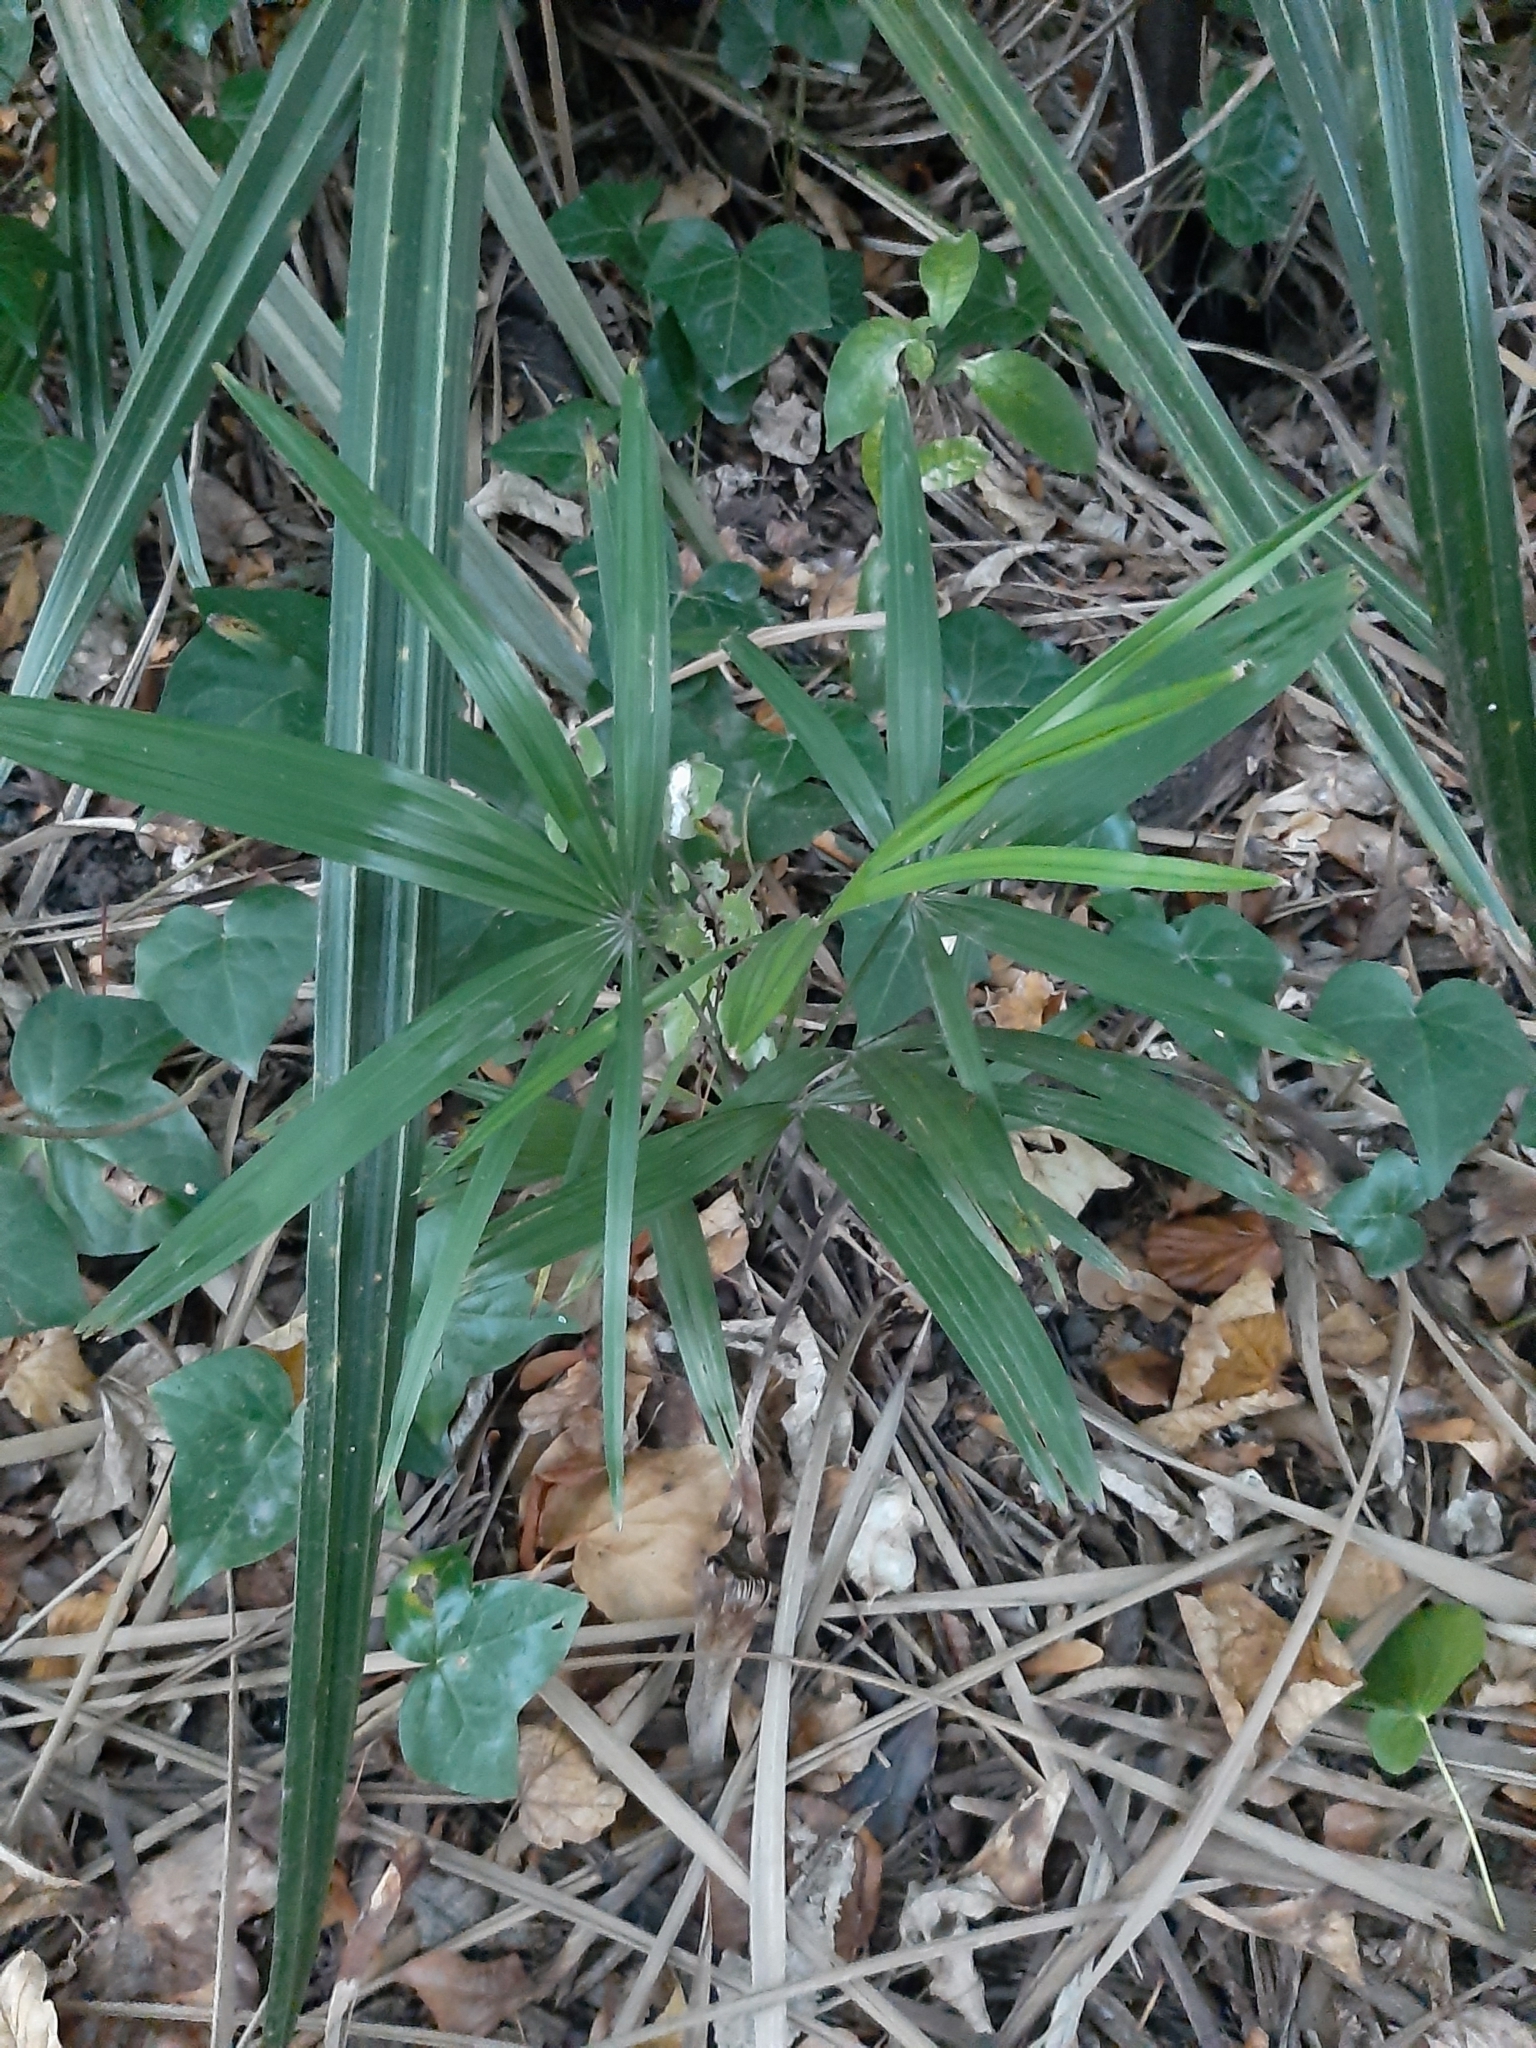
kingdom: Plantae
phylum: Tracheophyta
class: Liliopsida
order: Arecales
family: Arecaceae
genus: Trachycarpus
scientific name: Trachycarpus fortunei
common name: Chusan palm
